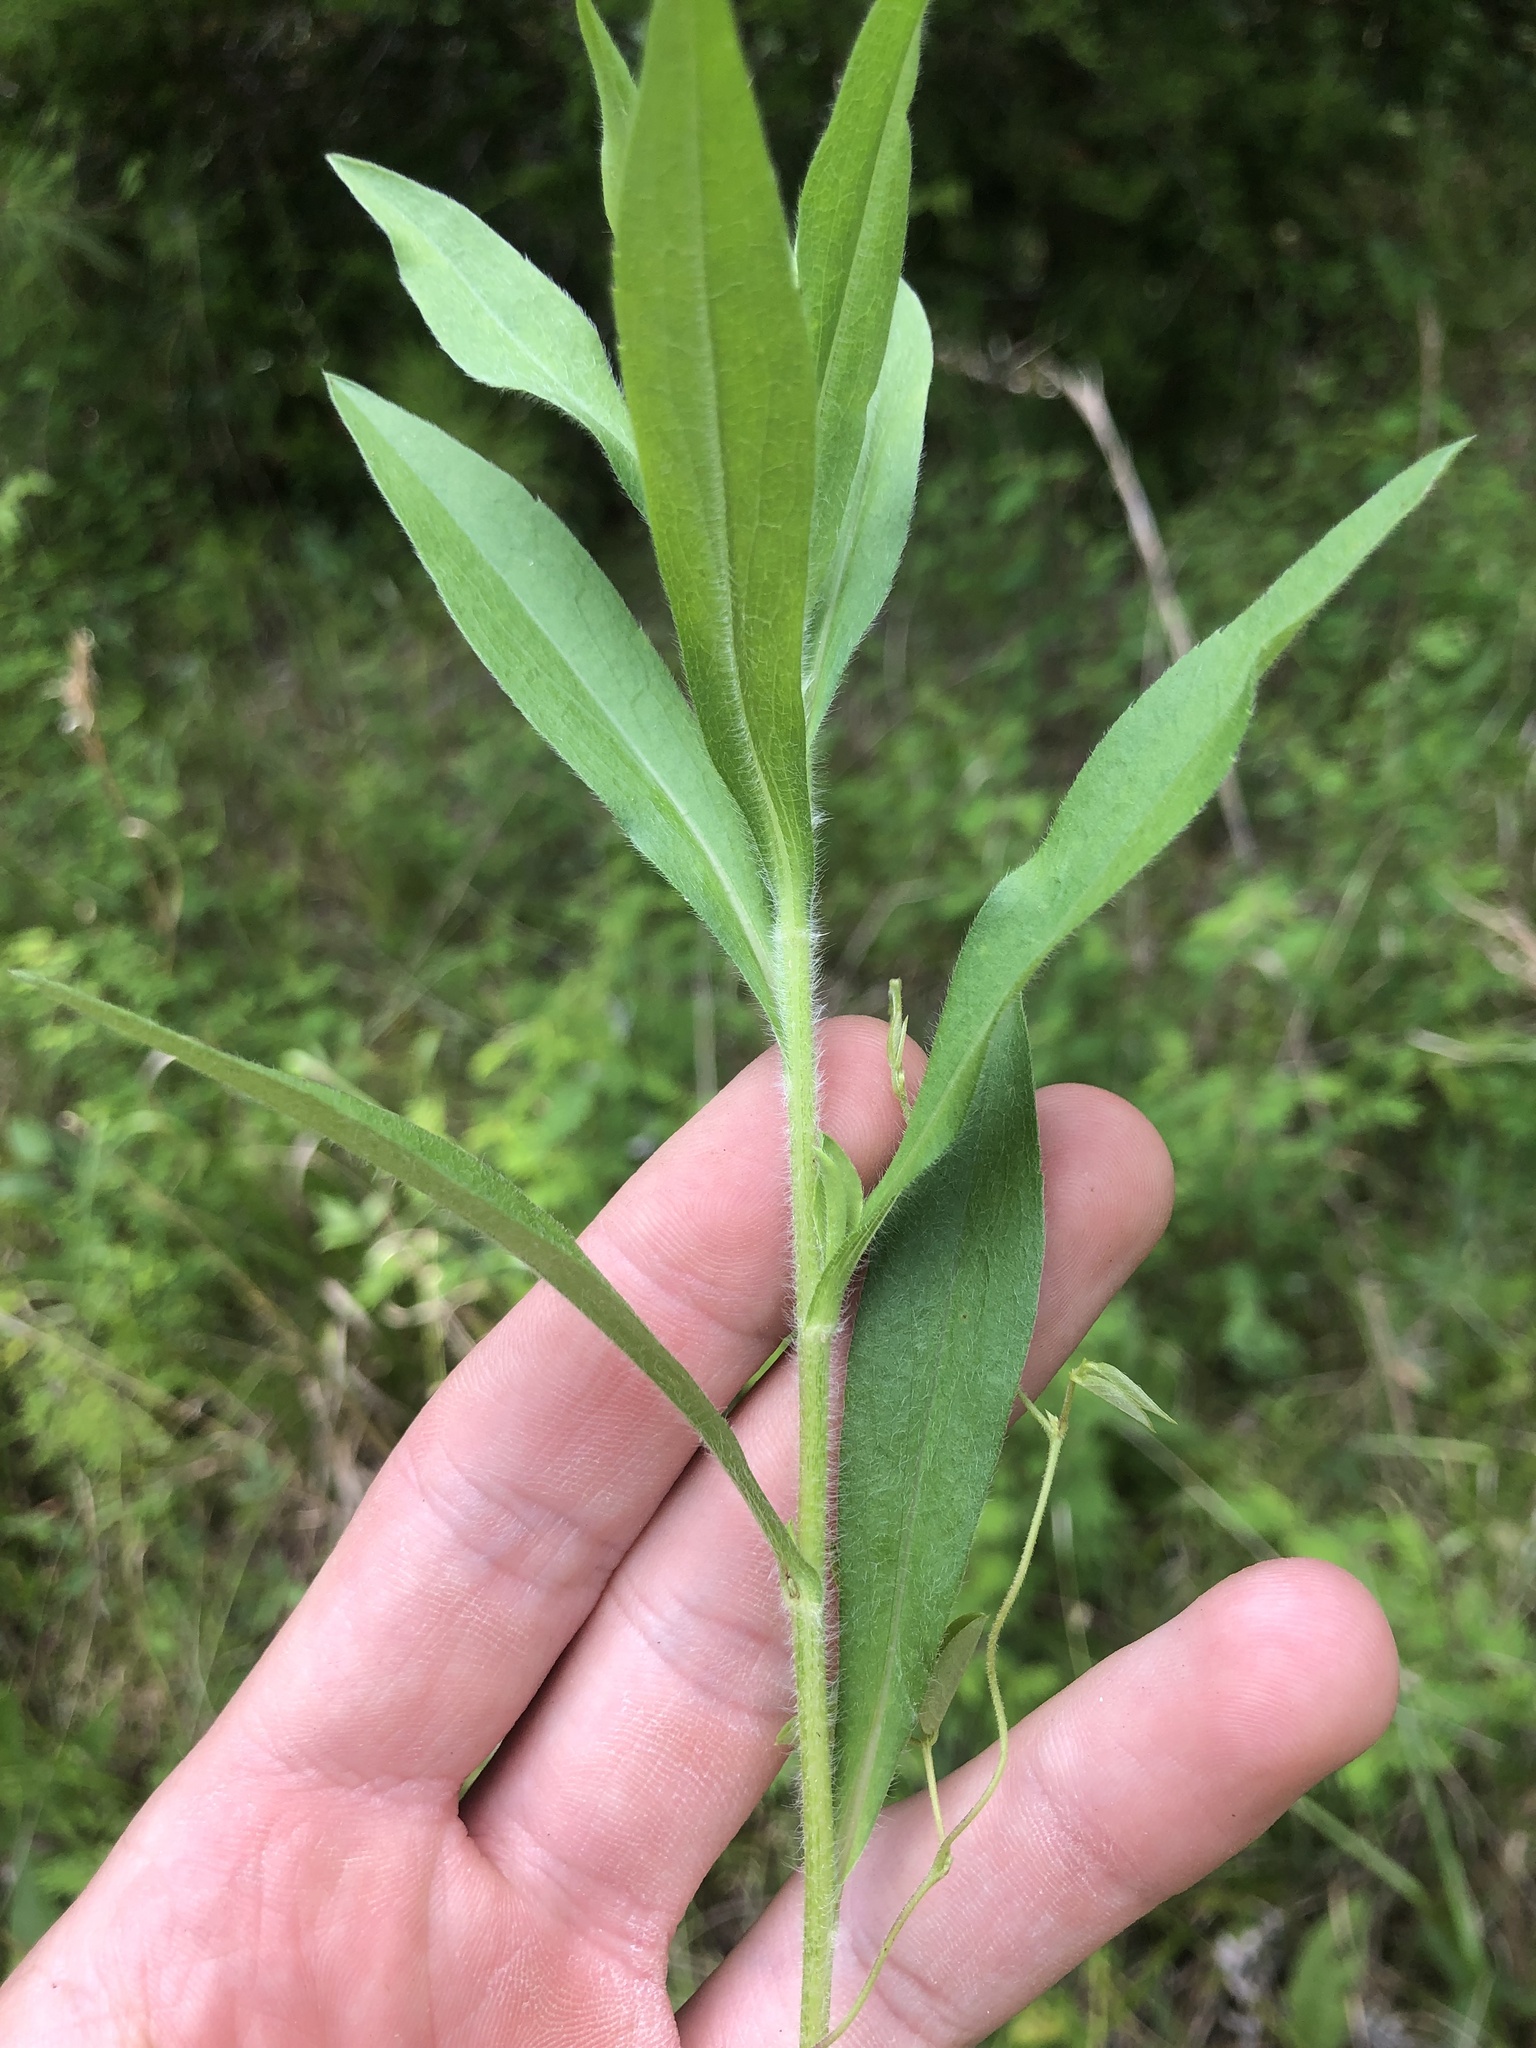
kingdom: Plantae
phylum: Tracheophyta
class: Magnoliopsida
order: Asterales
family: Asteraceae
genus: Symphyotrichum
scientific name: Symphyotrichum pilosum
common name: Awl aster
